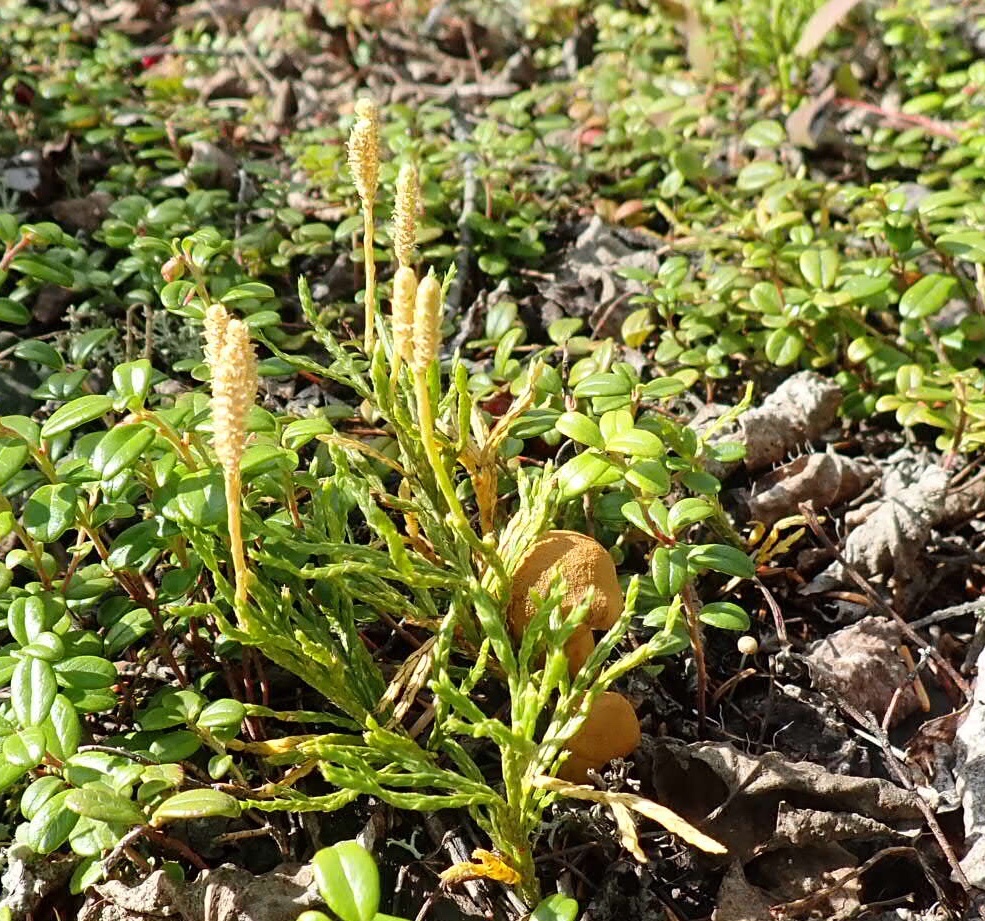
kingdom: Plantae
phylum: Tracheophyta
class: Lycopodiopsida
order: Lycopodiales
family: Lycopodiaceae
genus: Diphasiastrum
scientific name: Diphasiastrum complanatum
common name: Northern running-pine
